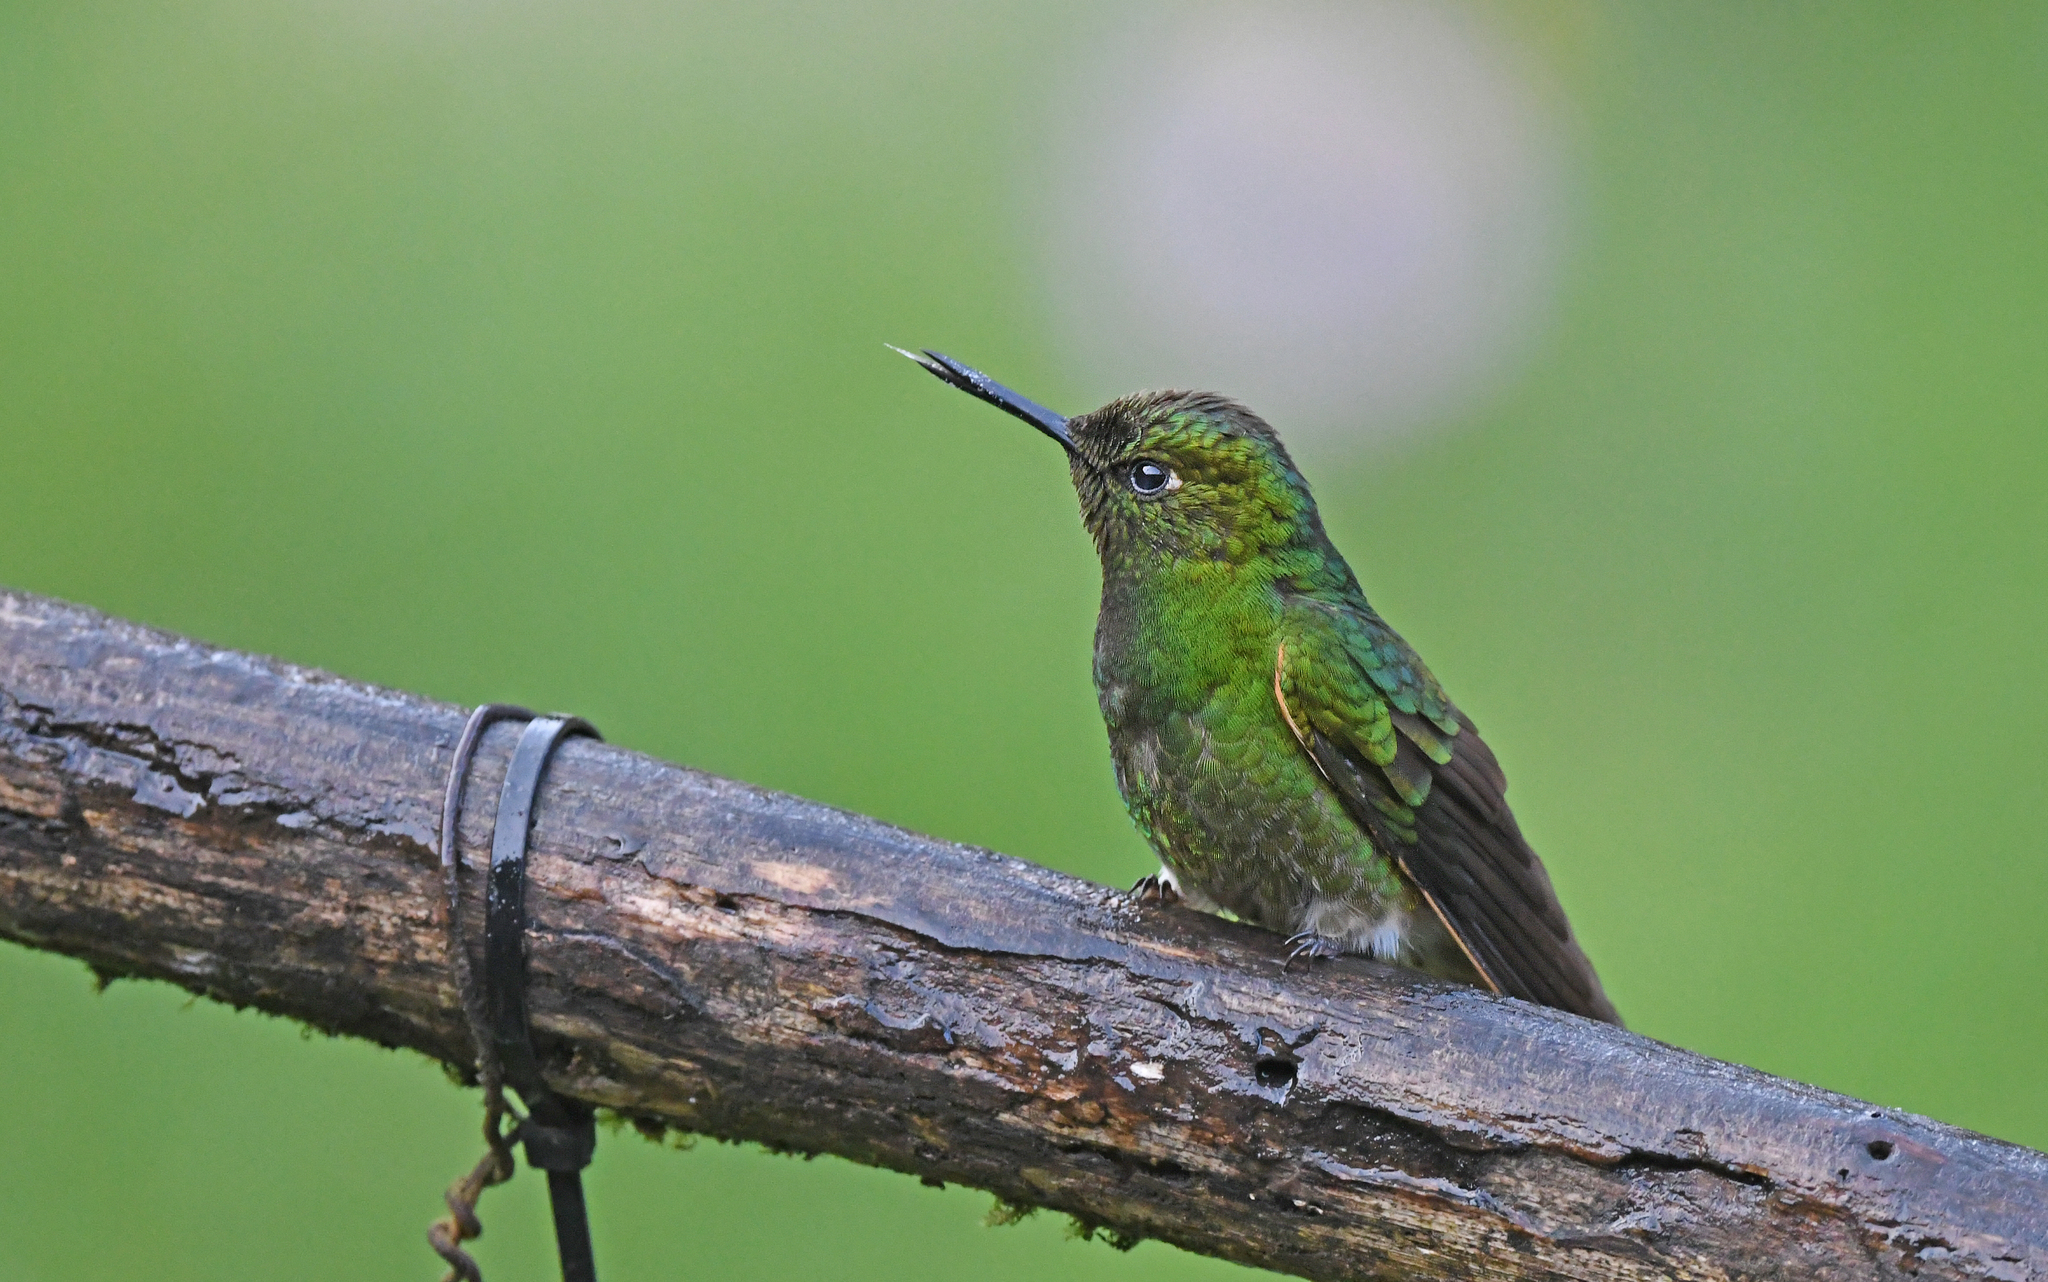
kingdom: Animalia
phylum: Chordata
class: Aves
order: Apodiformes
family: Trochilidae
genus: Boissonneaua
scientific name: Boissonneaua flavescens
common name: Buff-tailed coronet
